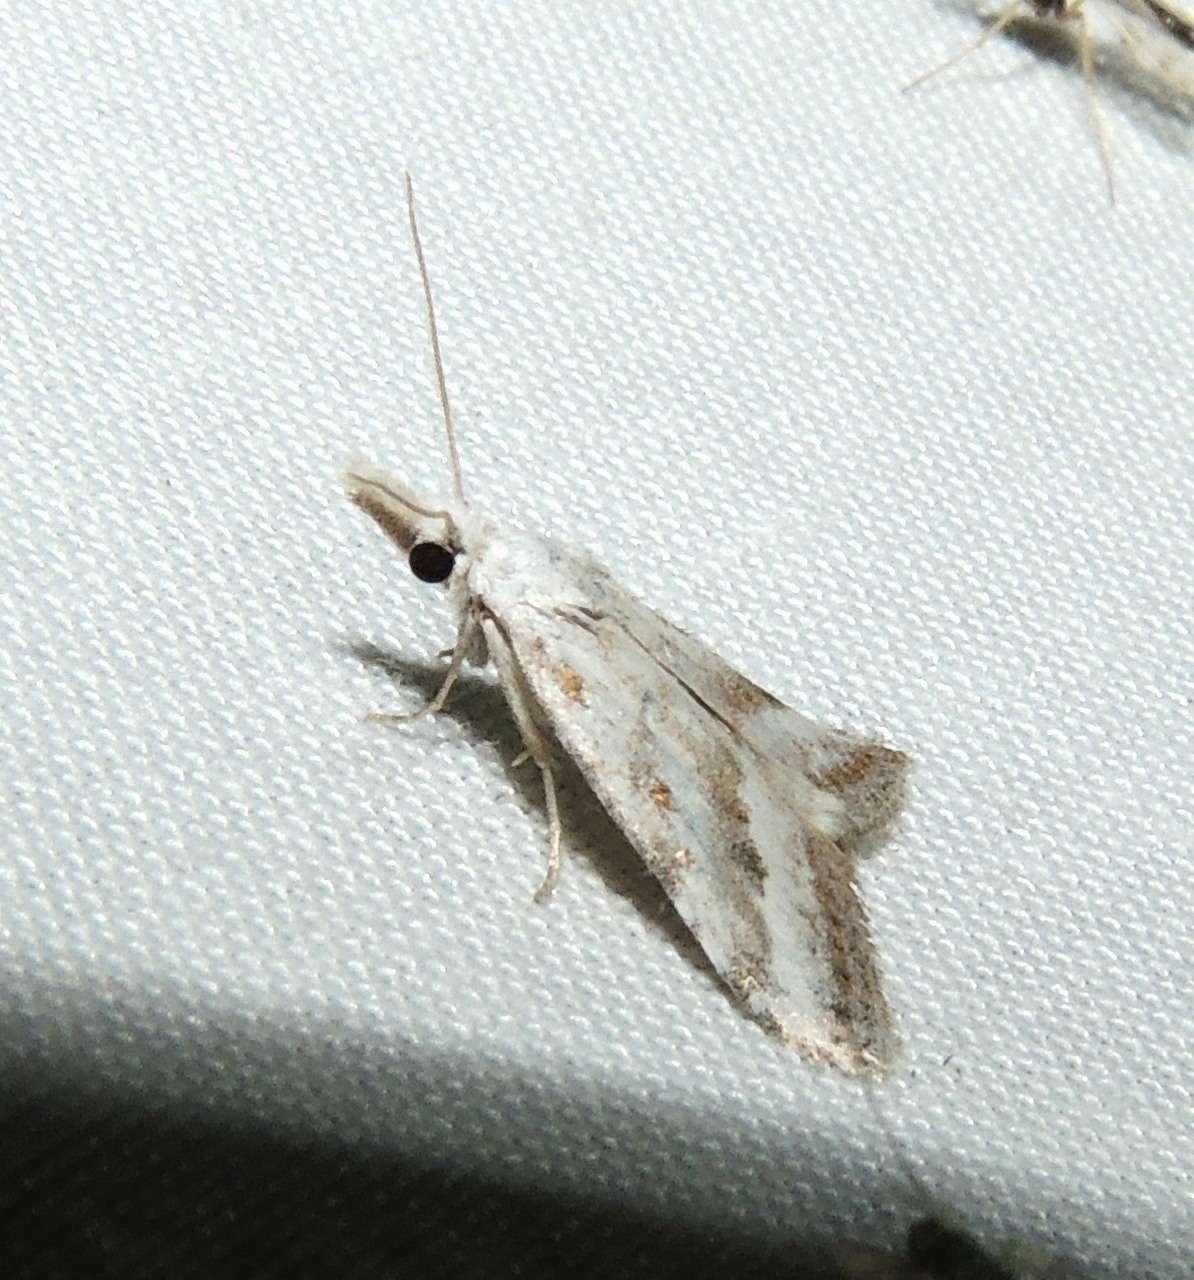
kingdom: Animalia
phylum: Arthropoda
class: Insecta
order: Lepidoptera
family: Nolidae
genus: Nola
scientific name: Nola paromoea
